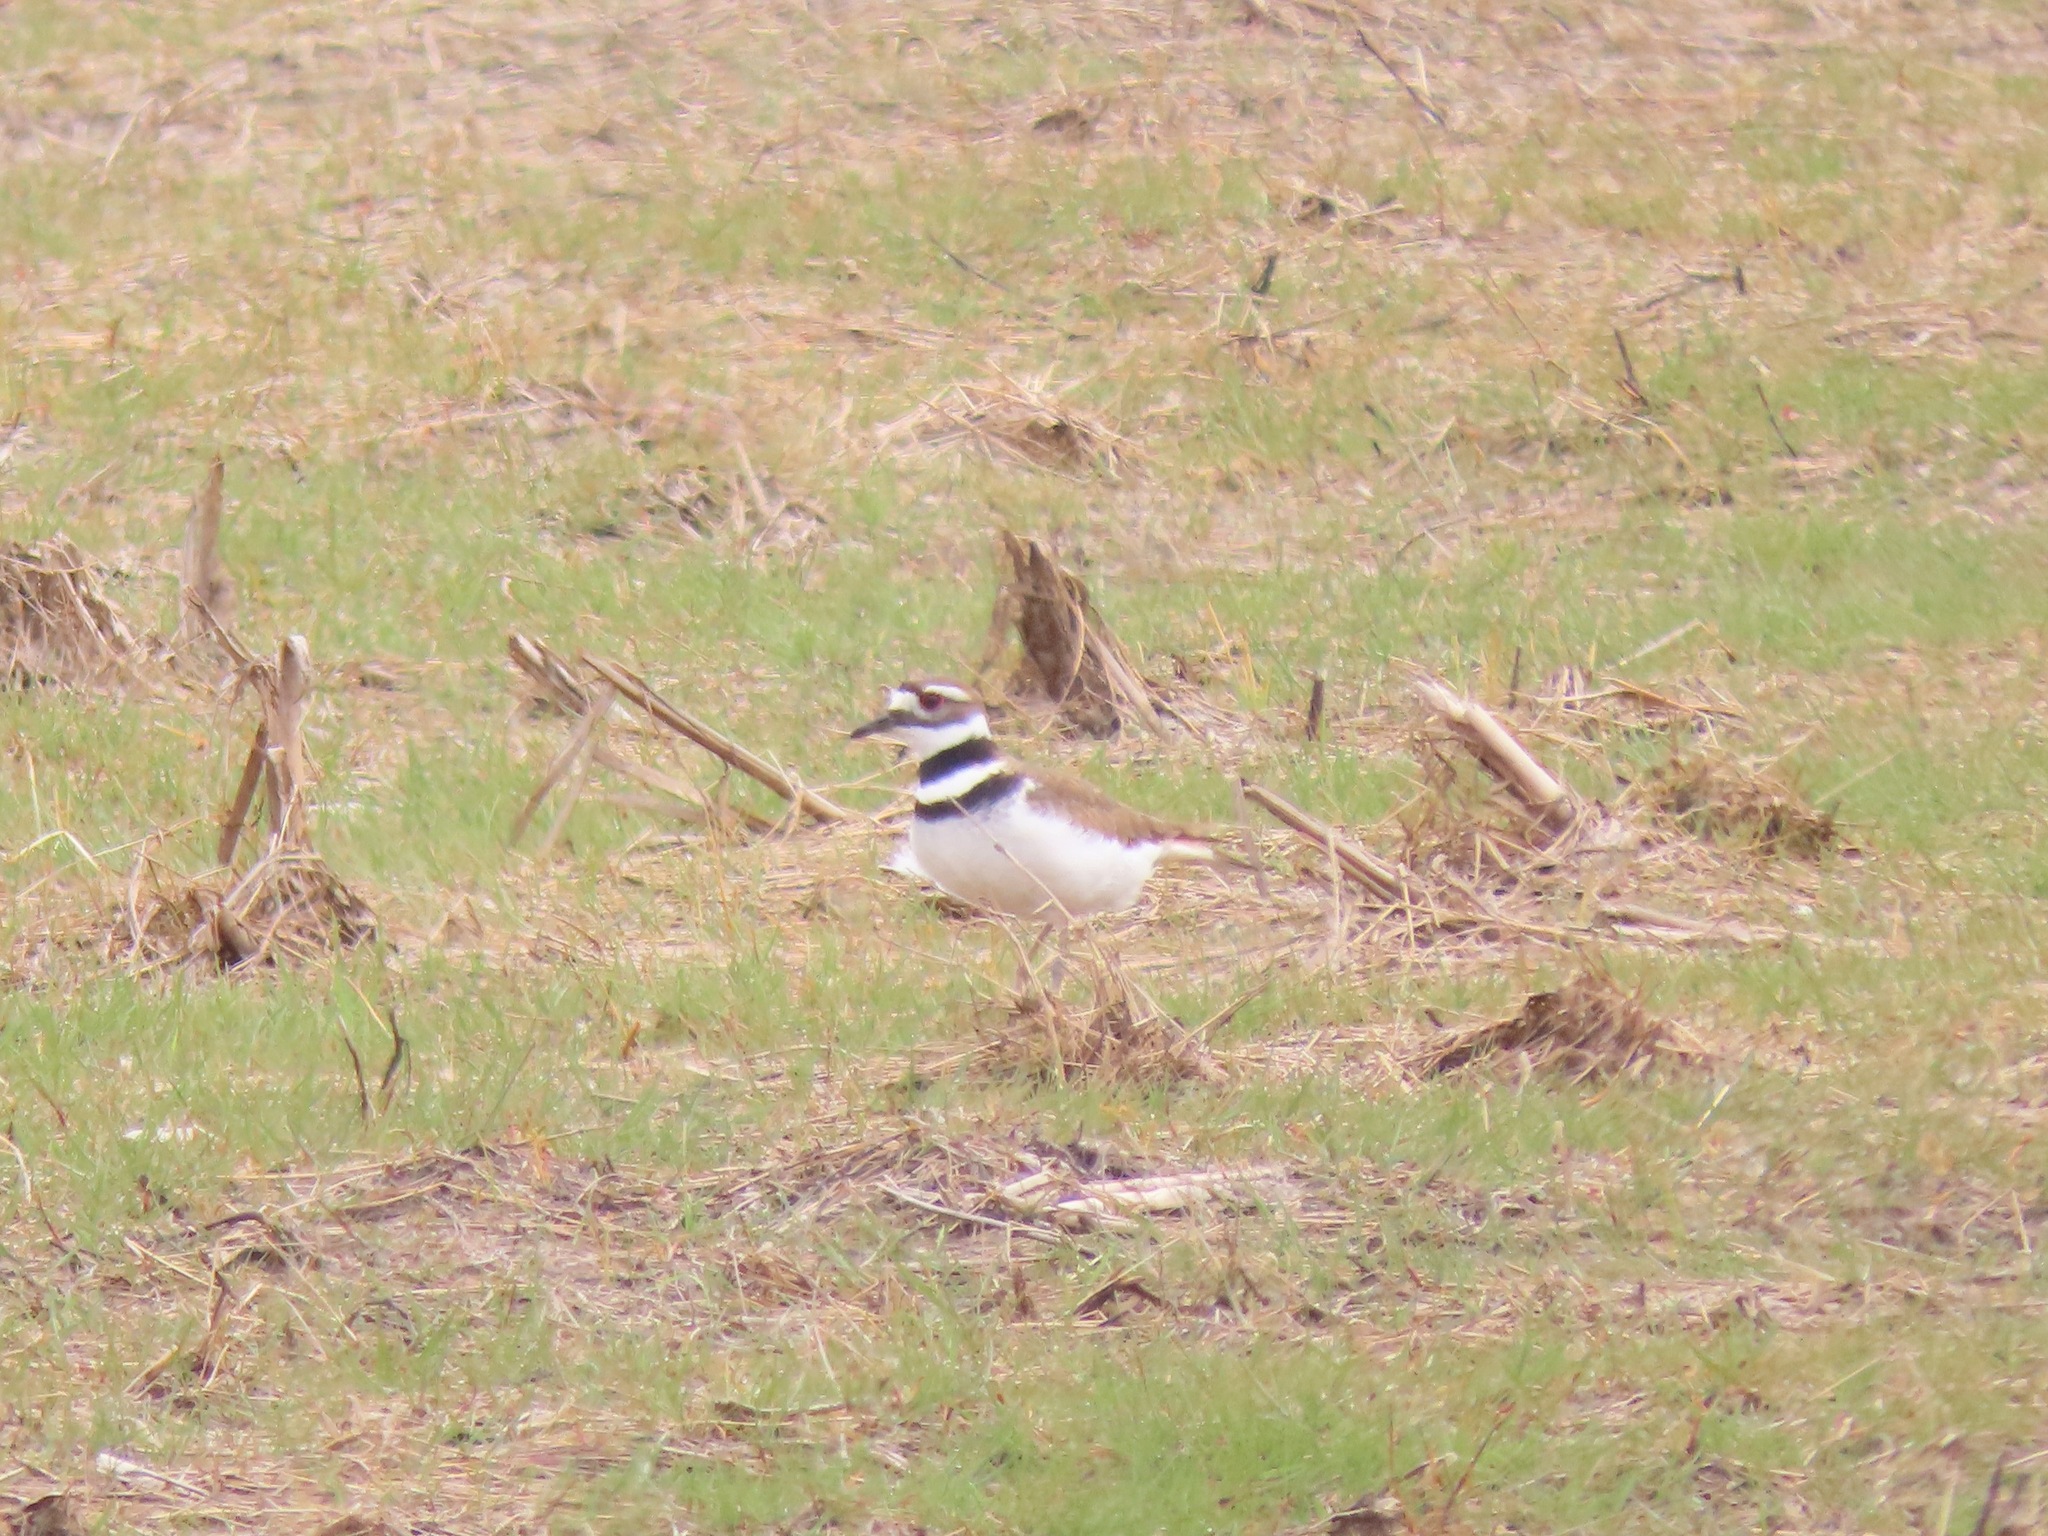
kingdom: Animalia
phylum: Chordata
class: Aves
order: Charadriiformes
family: Charadriidae
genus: Charadrius
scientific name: Charadrius vociferus
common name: Killdeer
